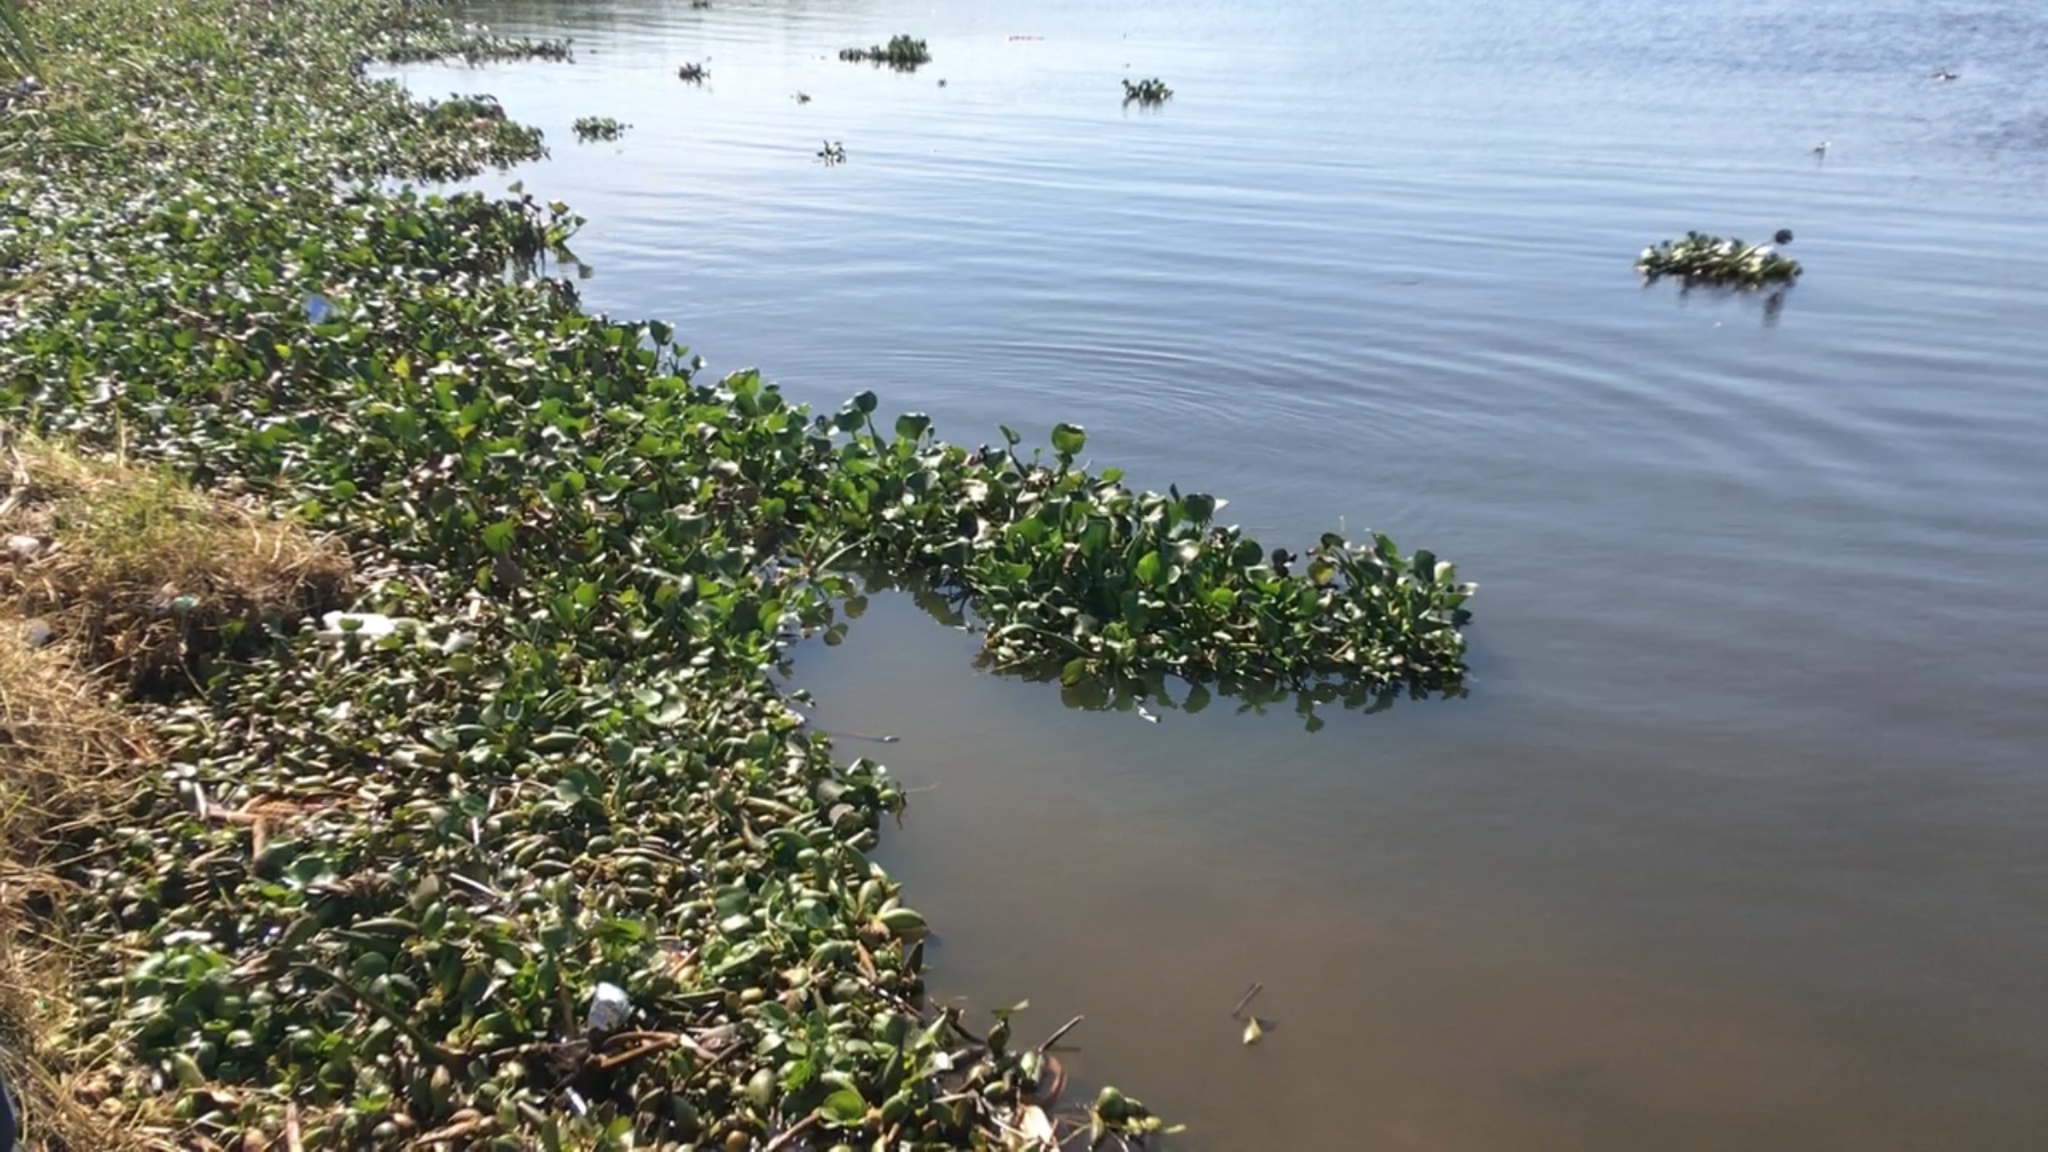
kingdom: Plantae
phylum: Tracheophyta
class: Liliopsida
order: Commelinales
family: Pontederiaceae
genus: Pontederia
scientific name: Pontederia crassipes
